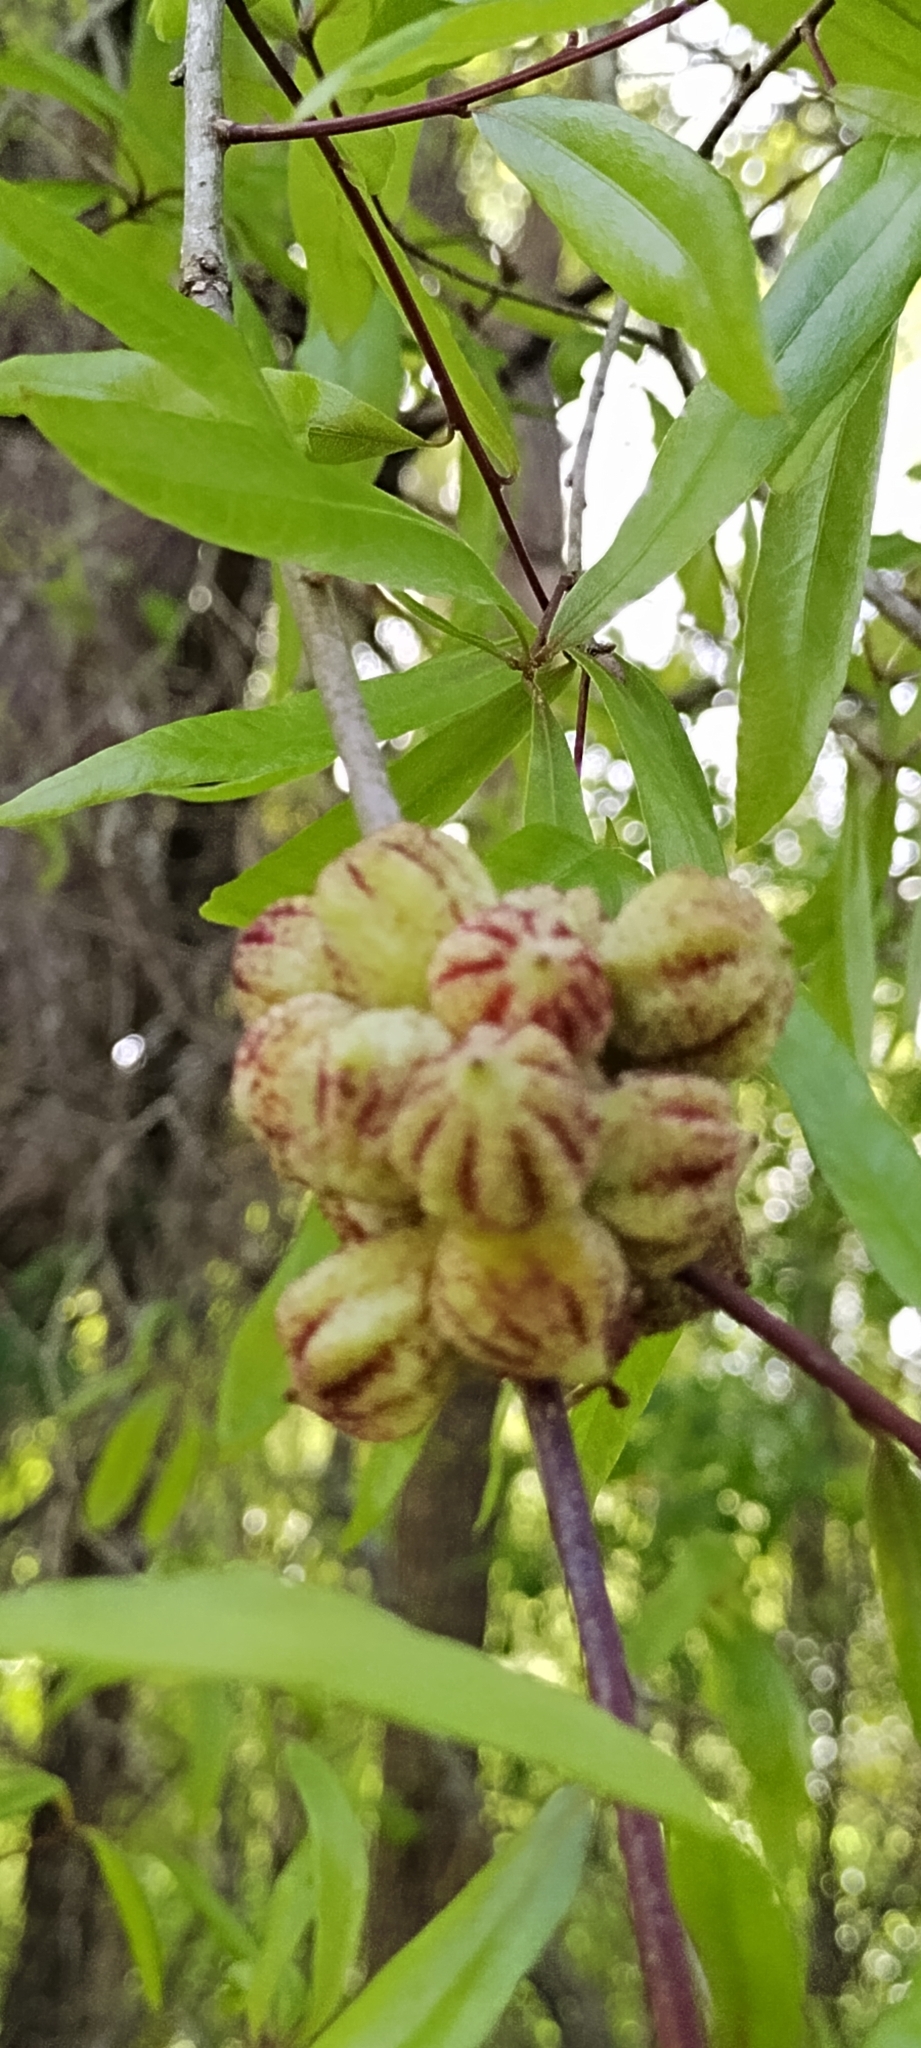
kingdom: Animalia
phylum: Arthropoda
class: Insecta
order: Hymenoptera
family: Cynipidae
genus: Andricus
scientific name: Andricus coronatus
